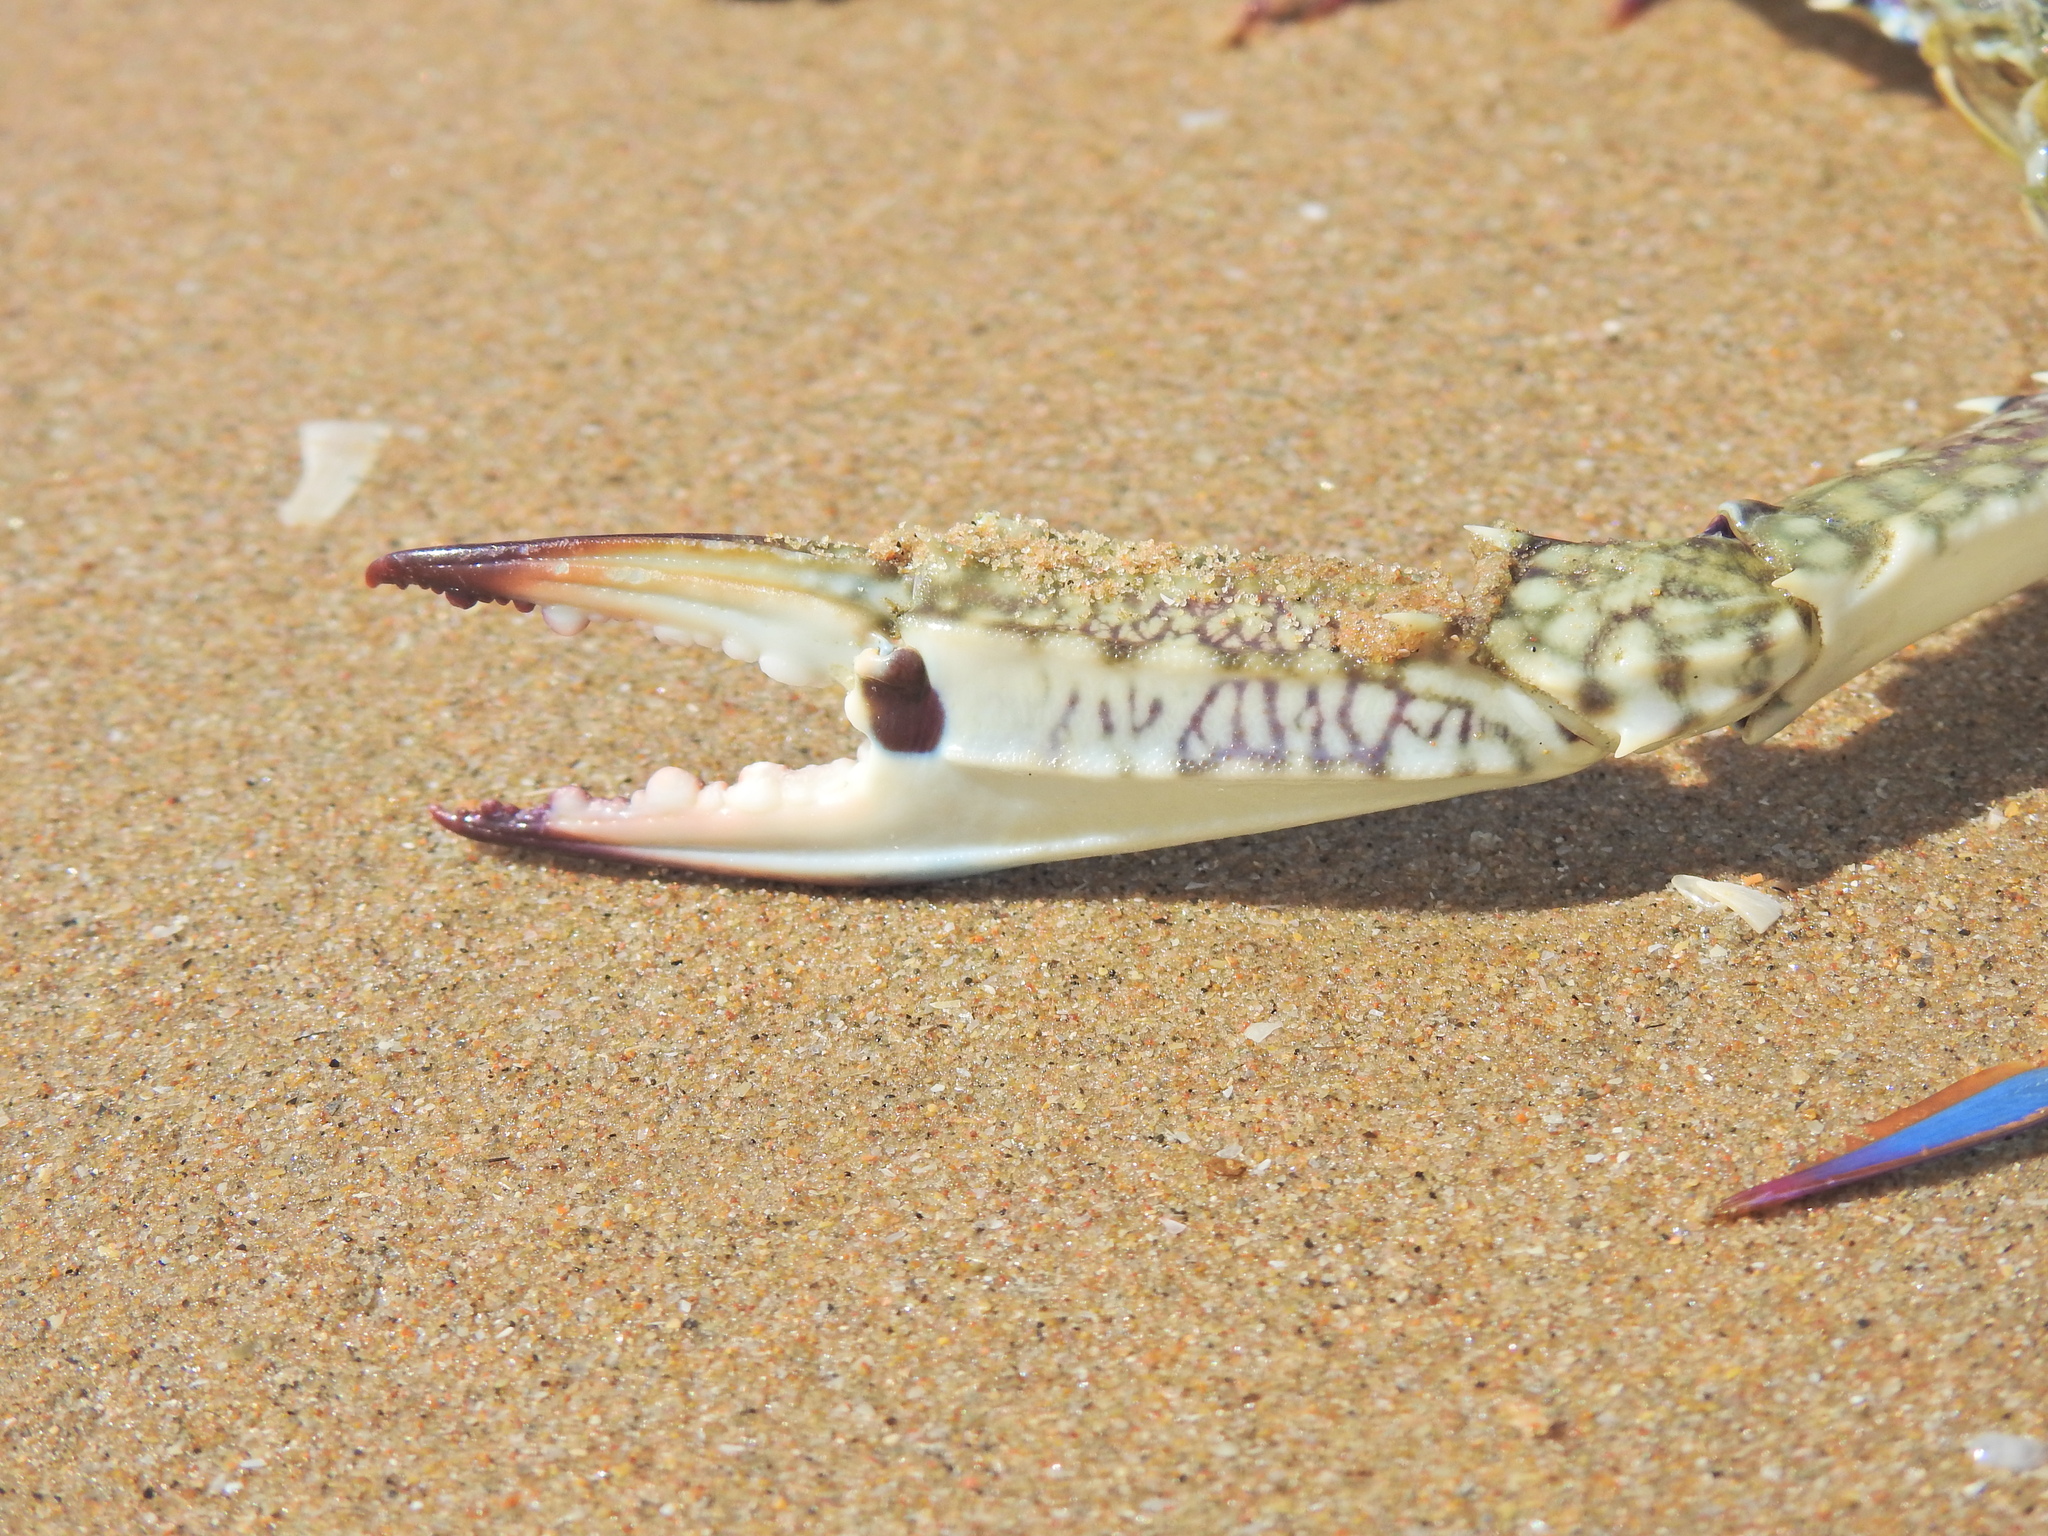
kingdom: Animalia
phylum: Arthropoda
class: Malacostraca
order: Decapoda
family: Portunidae
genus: Portunus
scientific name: Portunus armatus
